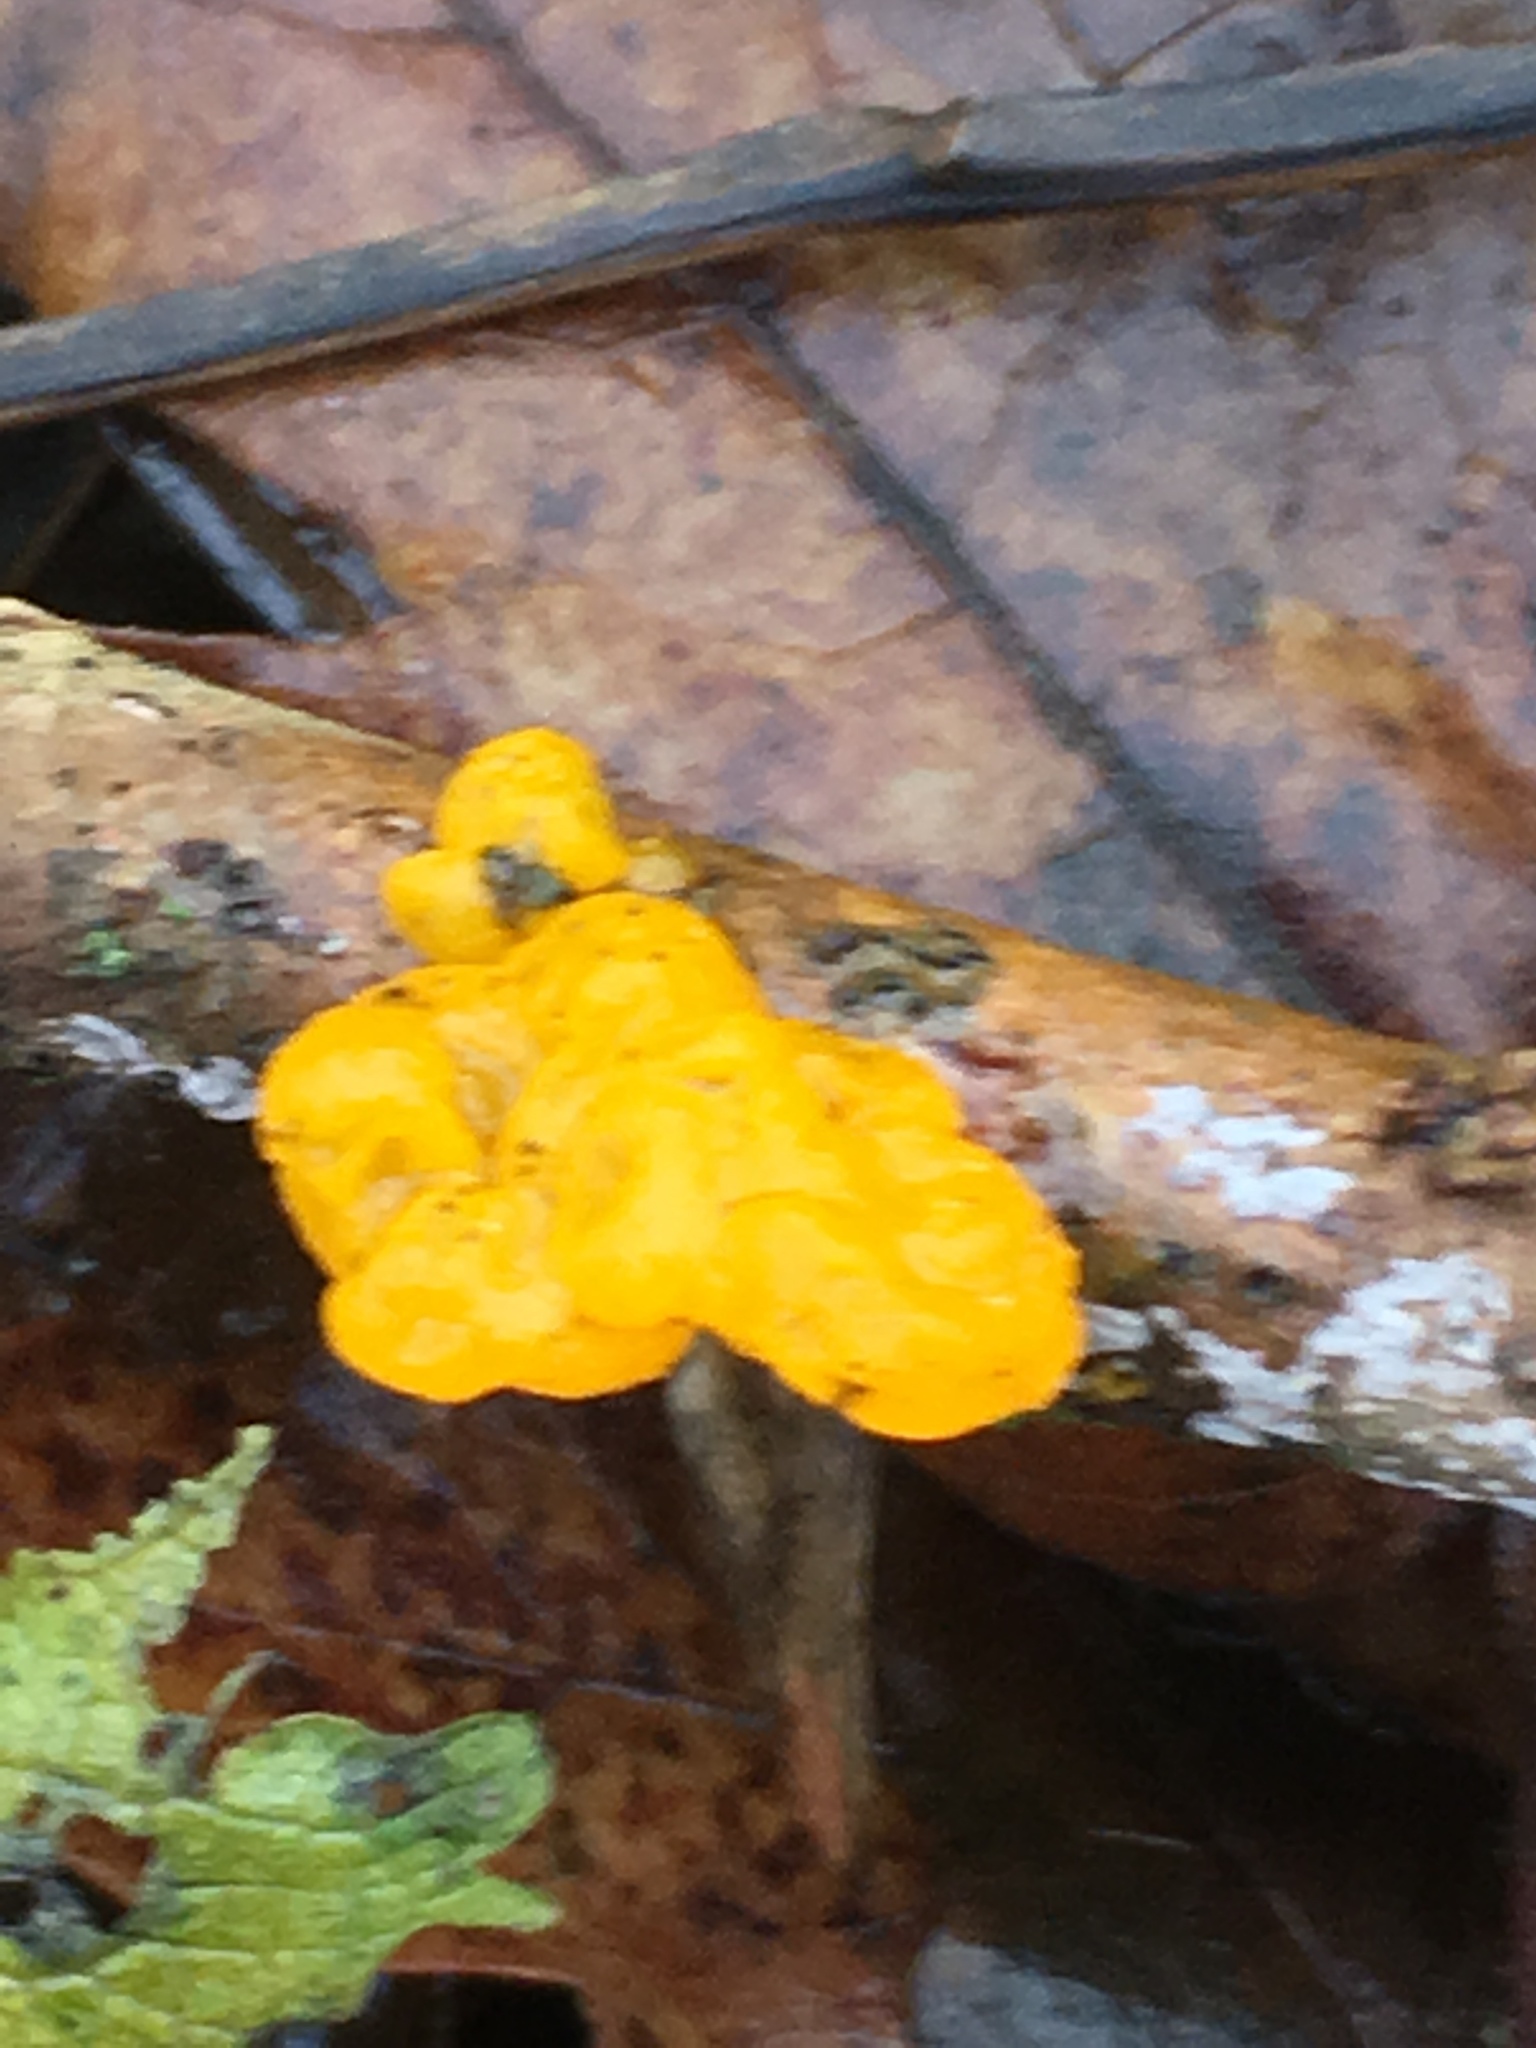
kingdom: Fungi
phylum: Basidiomycota
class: Tremellomycetes
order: Tremellales
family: Tremellaceae
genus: Tremella
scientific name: Tremella mesenterica
